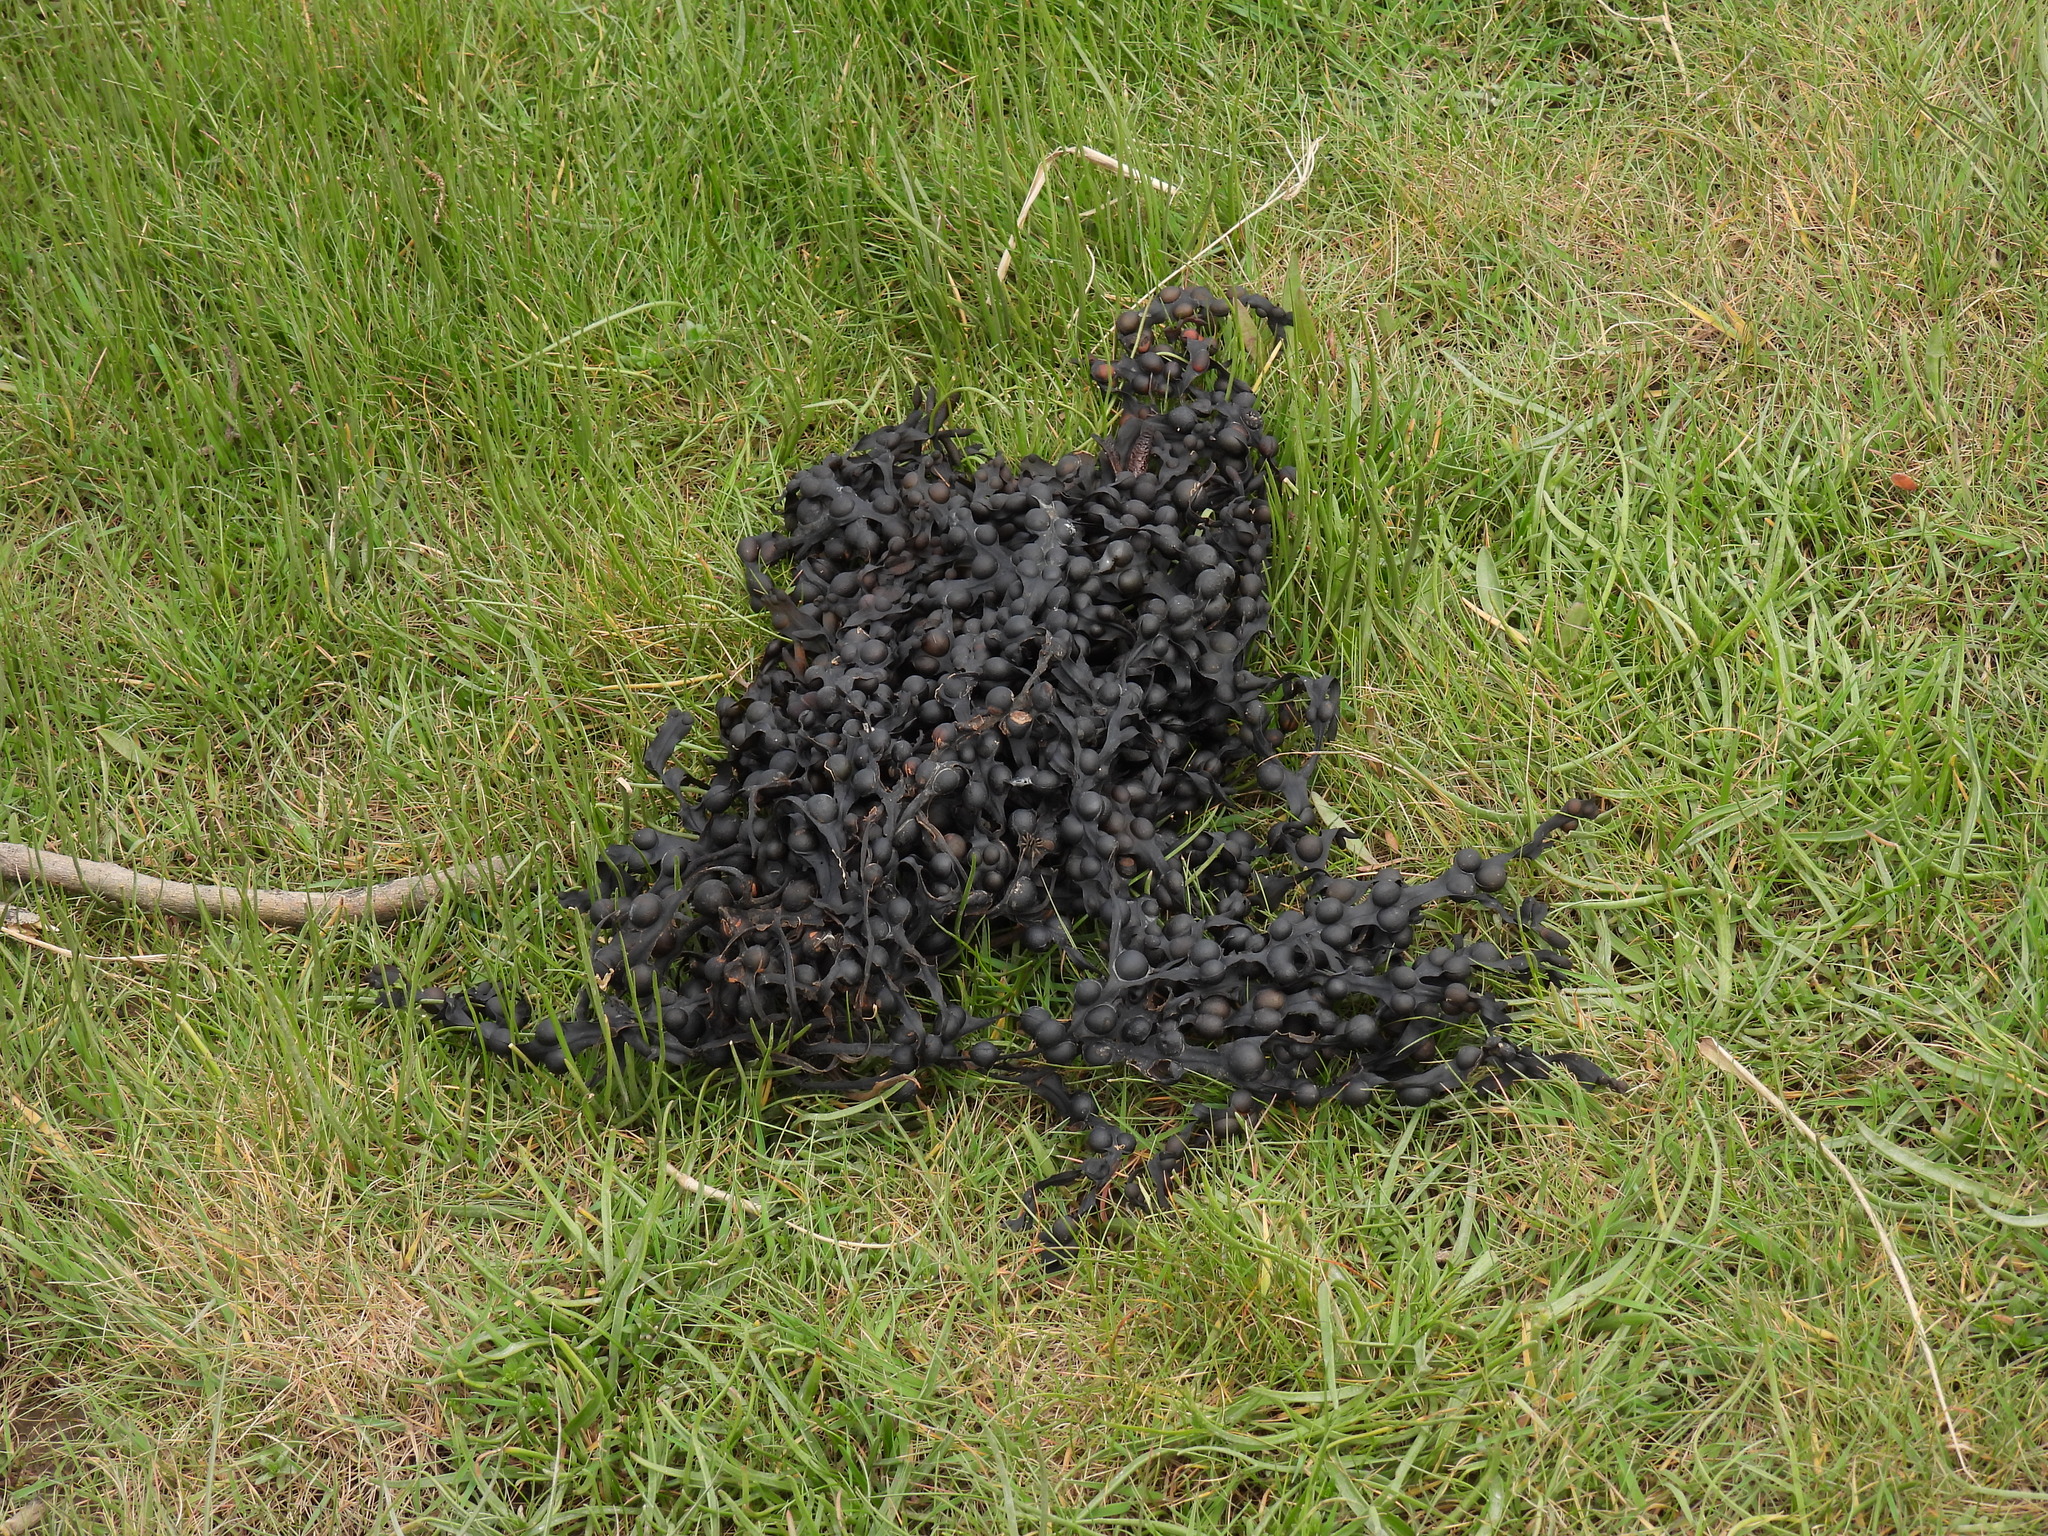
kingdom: Chromista
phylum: Ochrophyta
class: Phaeophyceae
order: Fucales
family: Fucaceae
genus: Fucus
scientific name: Fucus vesiculosus
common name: Bladder wrack
